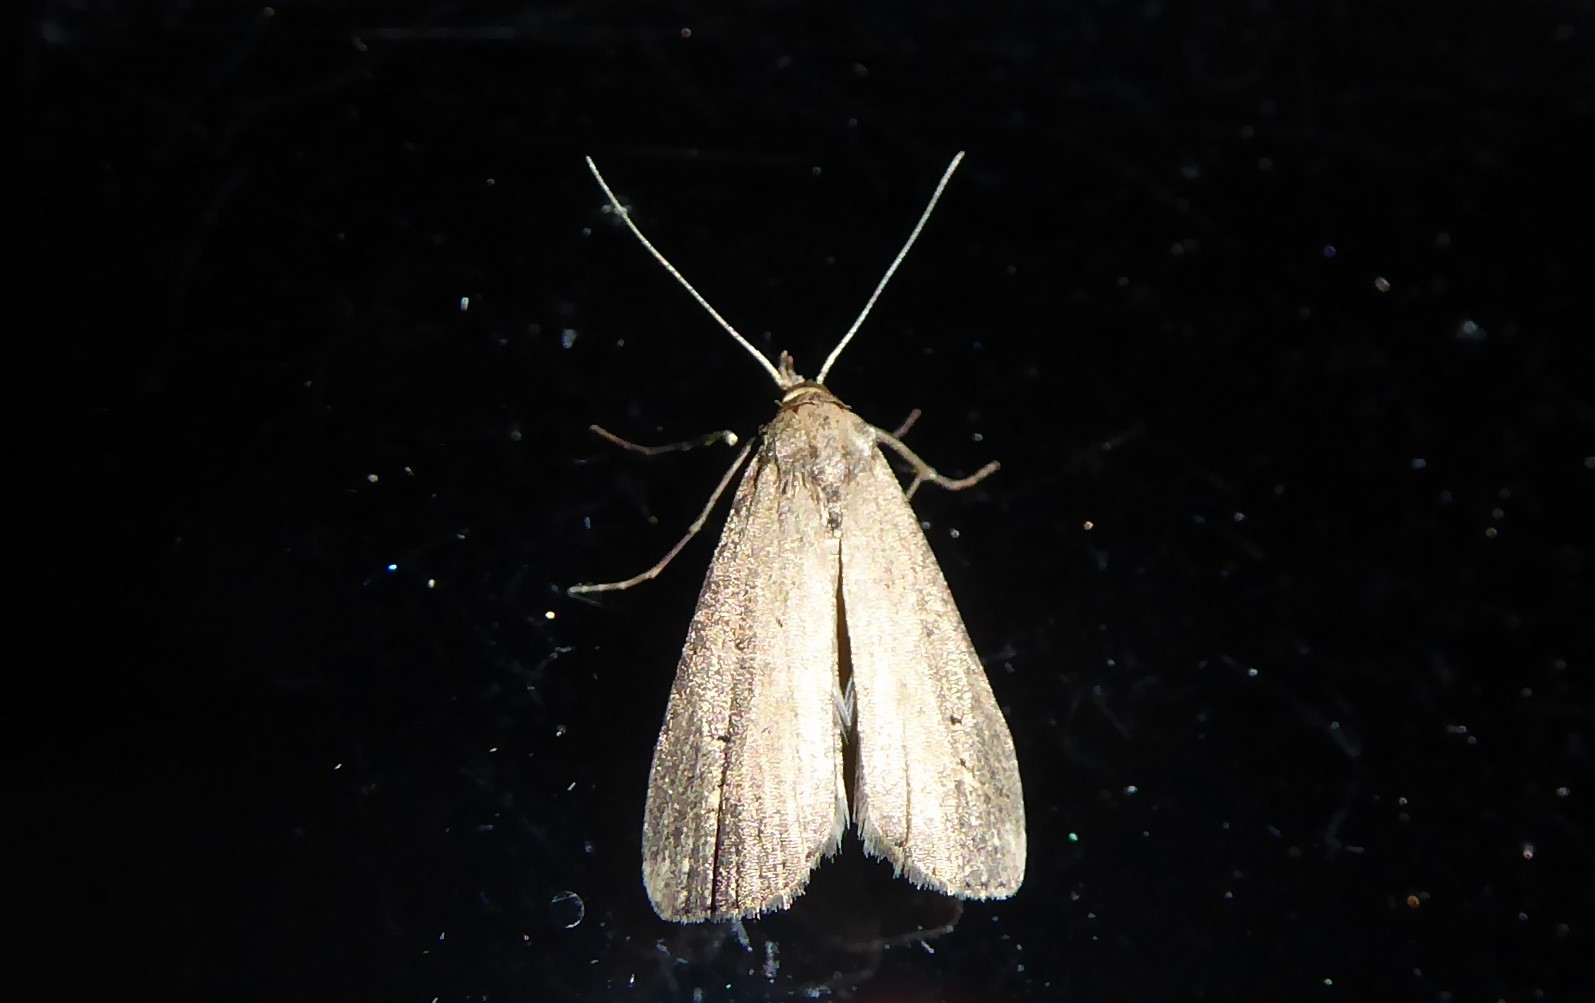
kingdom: Animalia
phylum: Arthropoda
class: Insecta
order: Lepidoptera
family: Erebidae
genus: Schrankia
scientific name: Schrankia costaestrigalis
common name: Pinion-streaked snout
